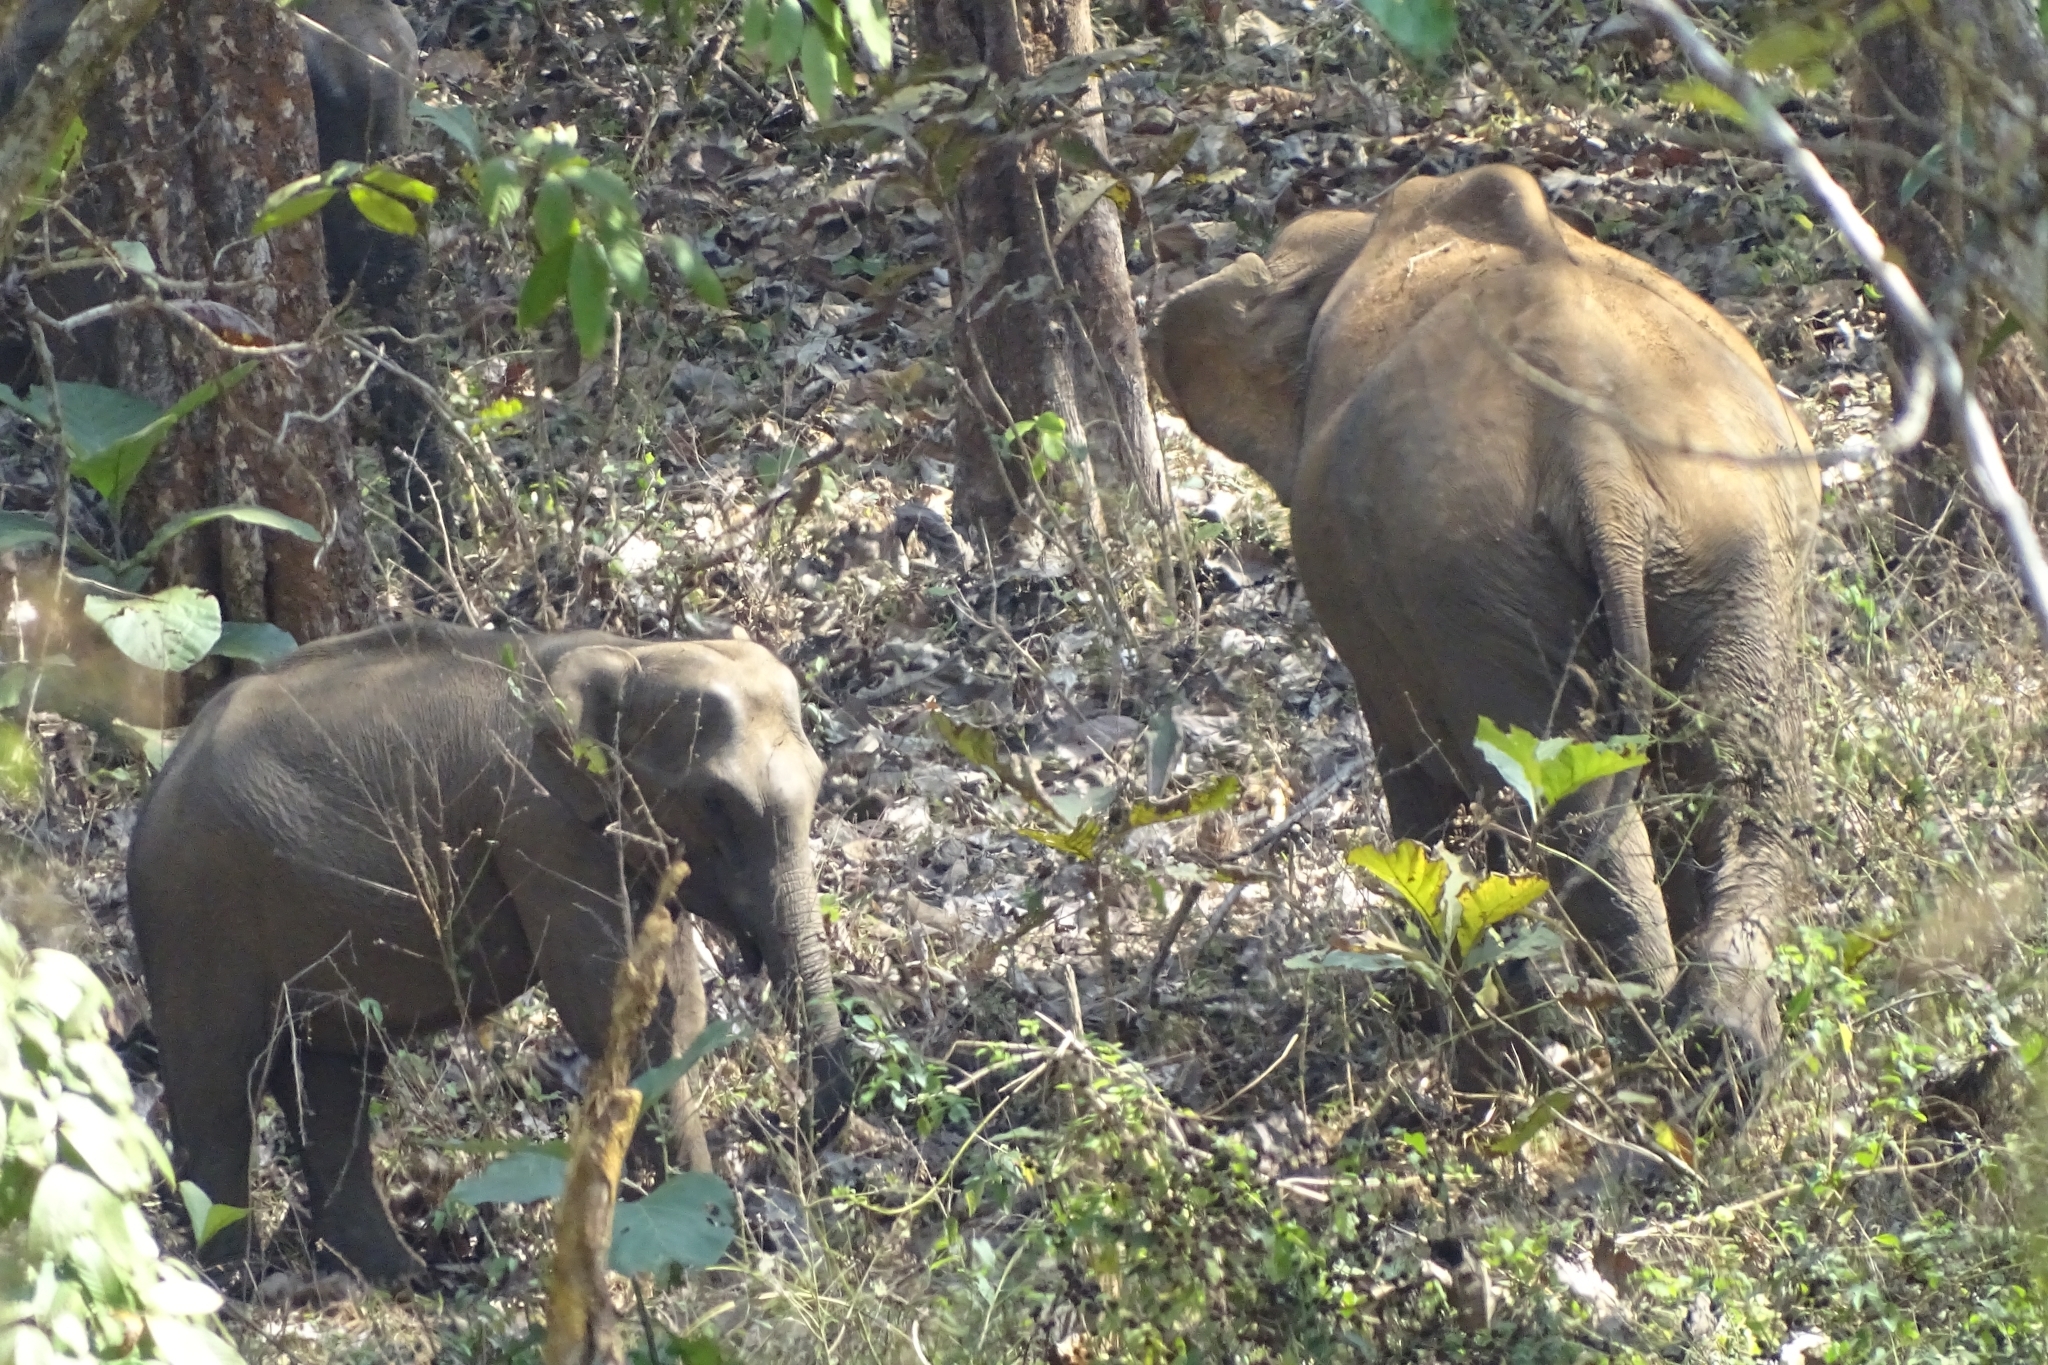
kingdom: Animalia
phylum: Chordata
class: Mammalia
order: Proboscidea
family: Elephantidae
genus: Elephas
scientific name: Elephas maximus
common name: Asian elephant
